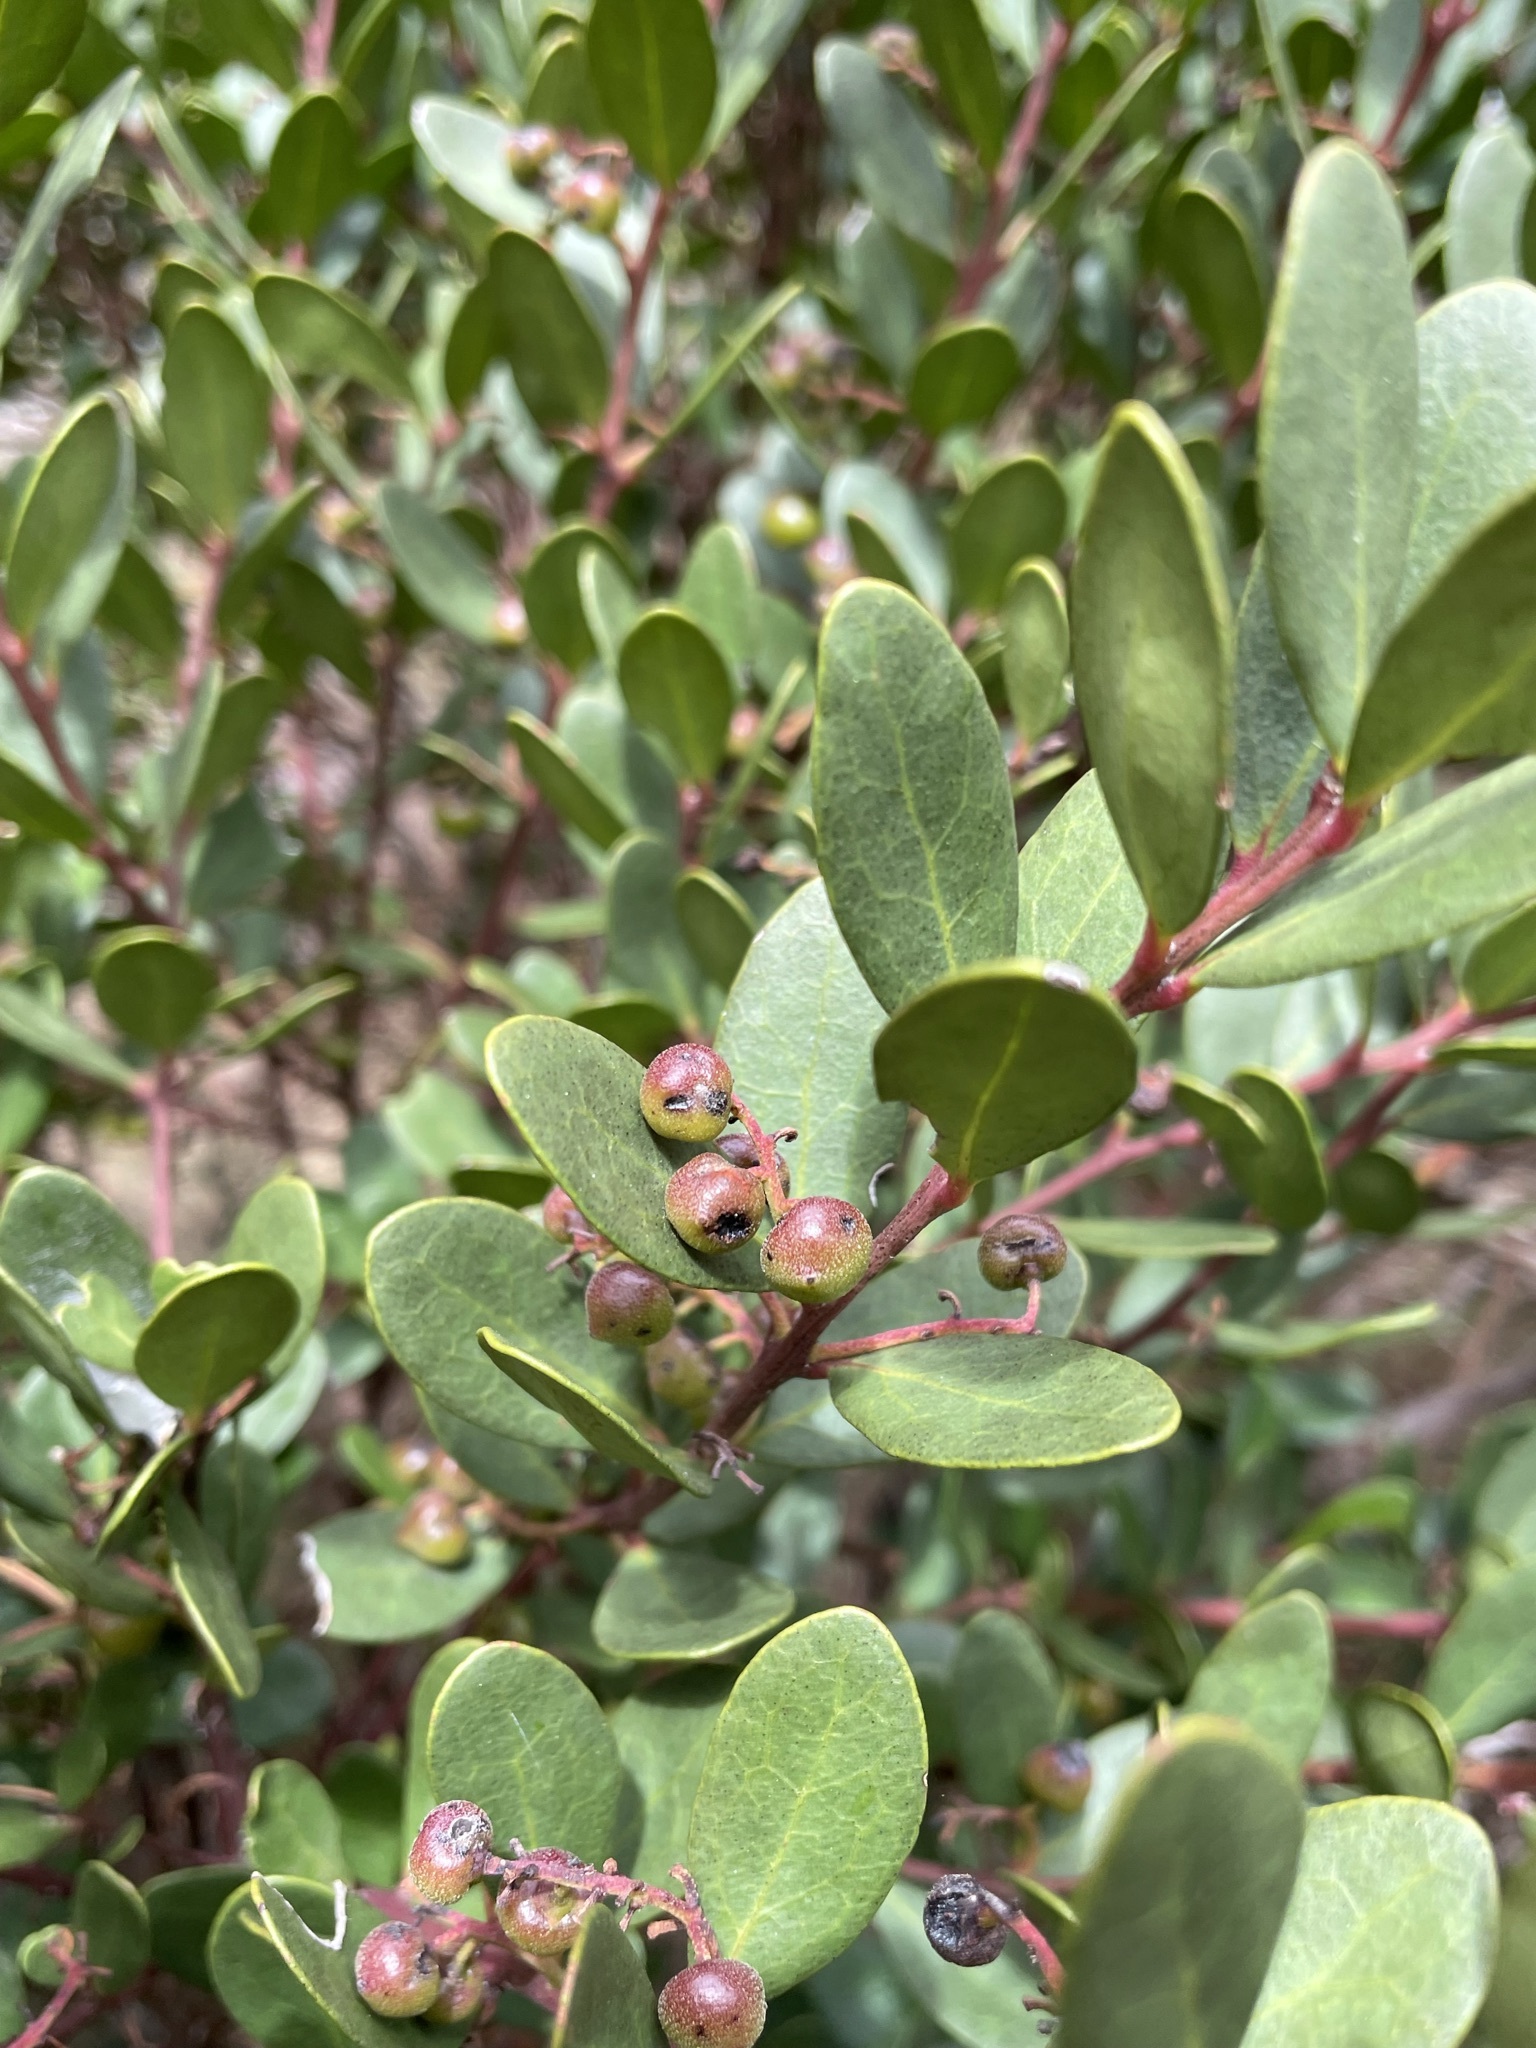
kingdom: Plantae
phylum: Tracheophyta
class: Magnoliopsida
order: Ericales
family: Ebenaceae
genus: Euclea
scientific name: Euclea racemosa
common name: Dune guarri
